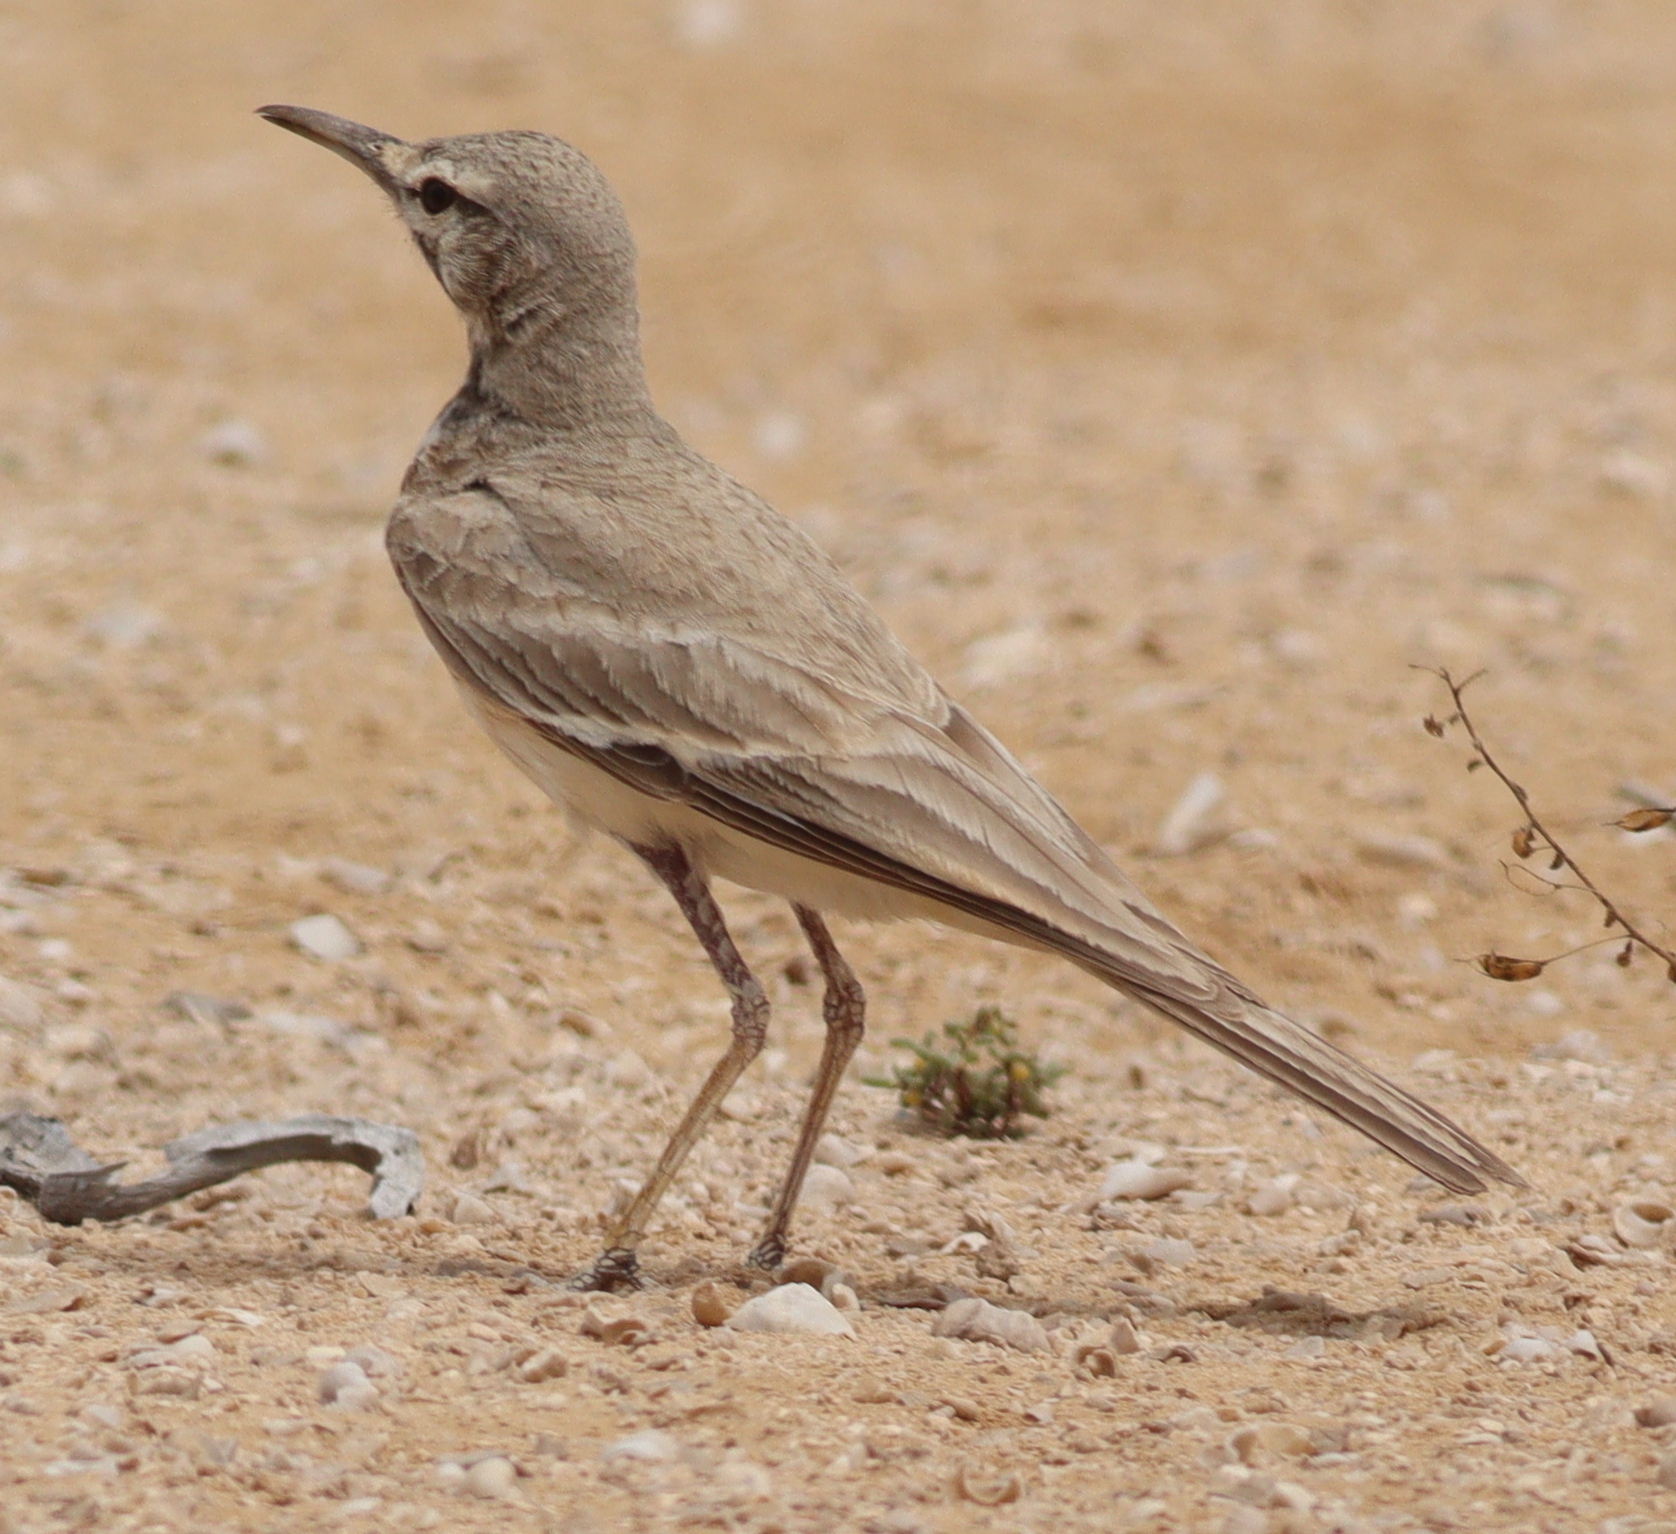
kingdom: Animalia
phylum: Chordata
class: Aves
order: Passeriformes
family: Alaudidae
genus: Alaemon
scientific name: Alaemon alaudipes
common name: Greater hoopoe-lark
